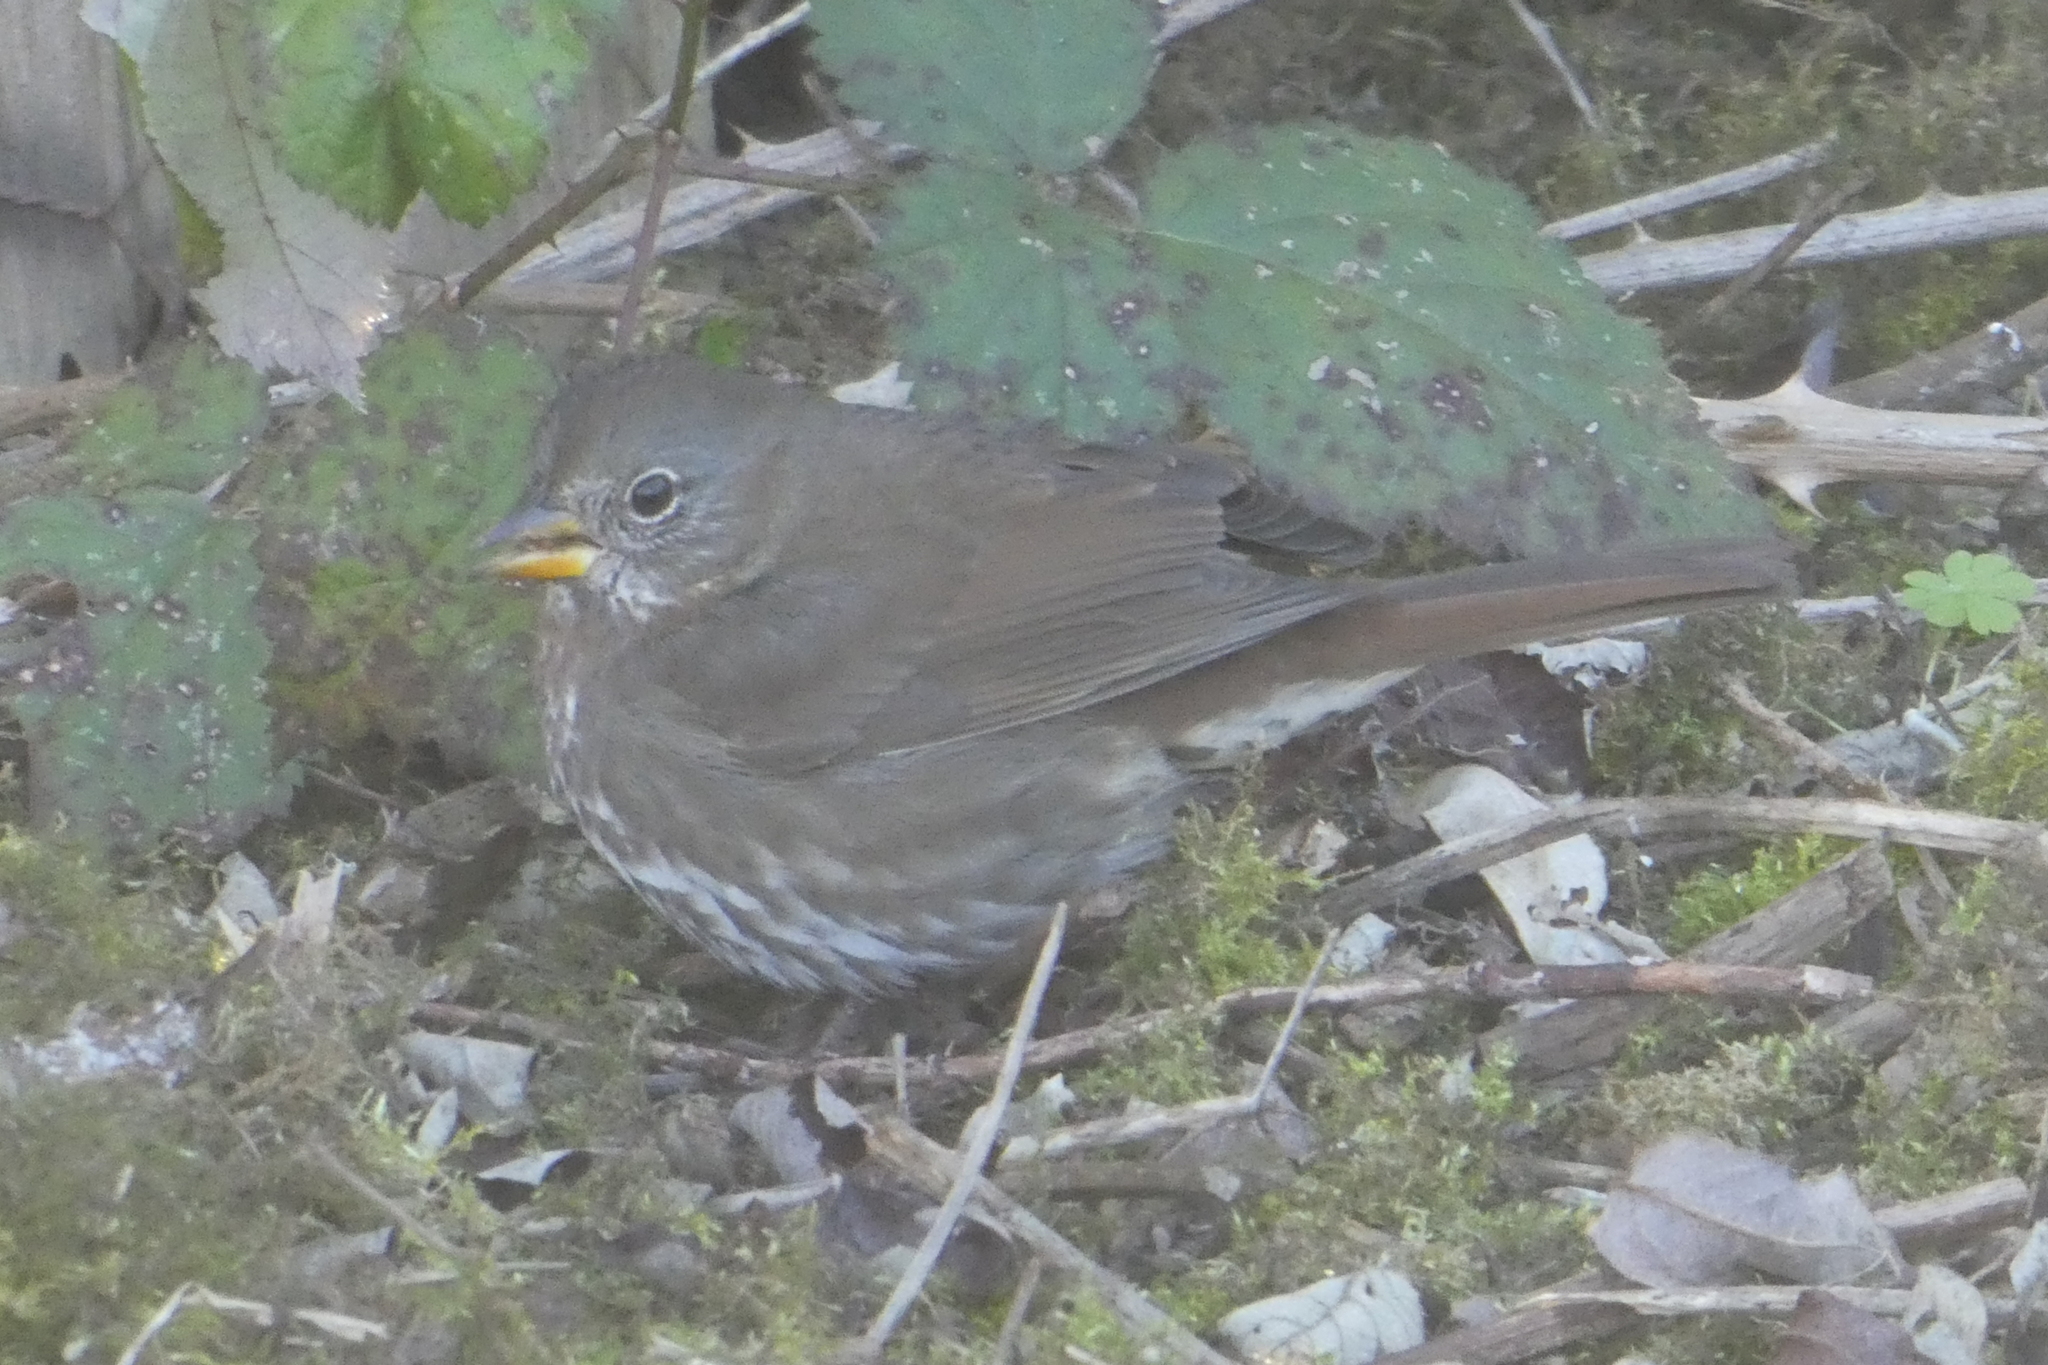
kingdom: Animalia
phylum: Chordata
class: Aves
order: Passeriformes
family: Passerellidae
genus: Passerella
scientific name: Passerella iliaca
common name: Fox sparrow
